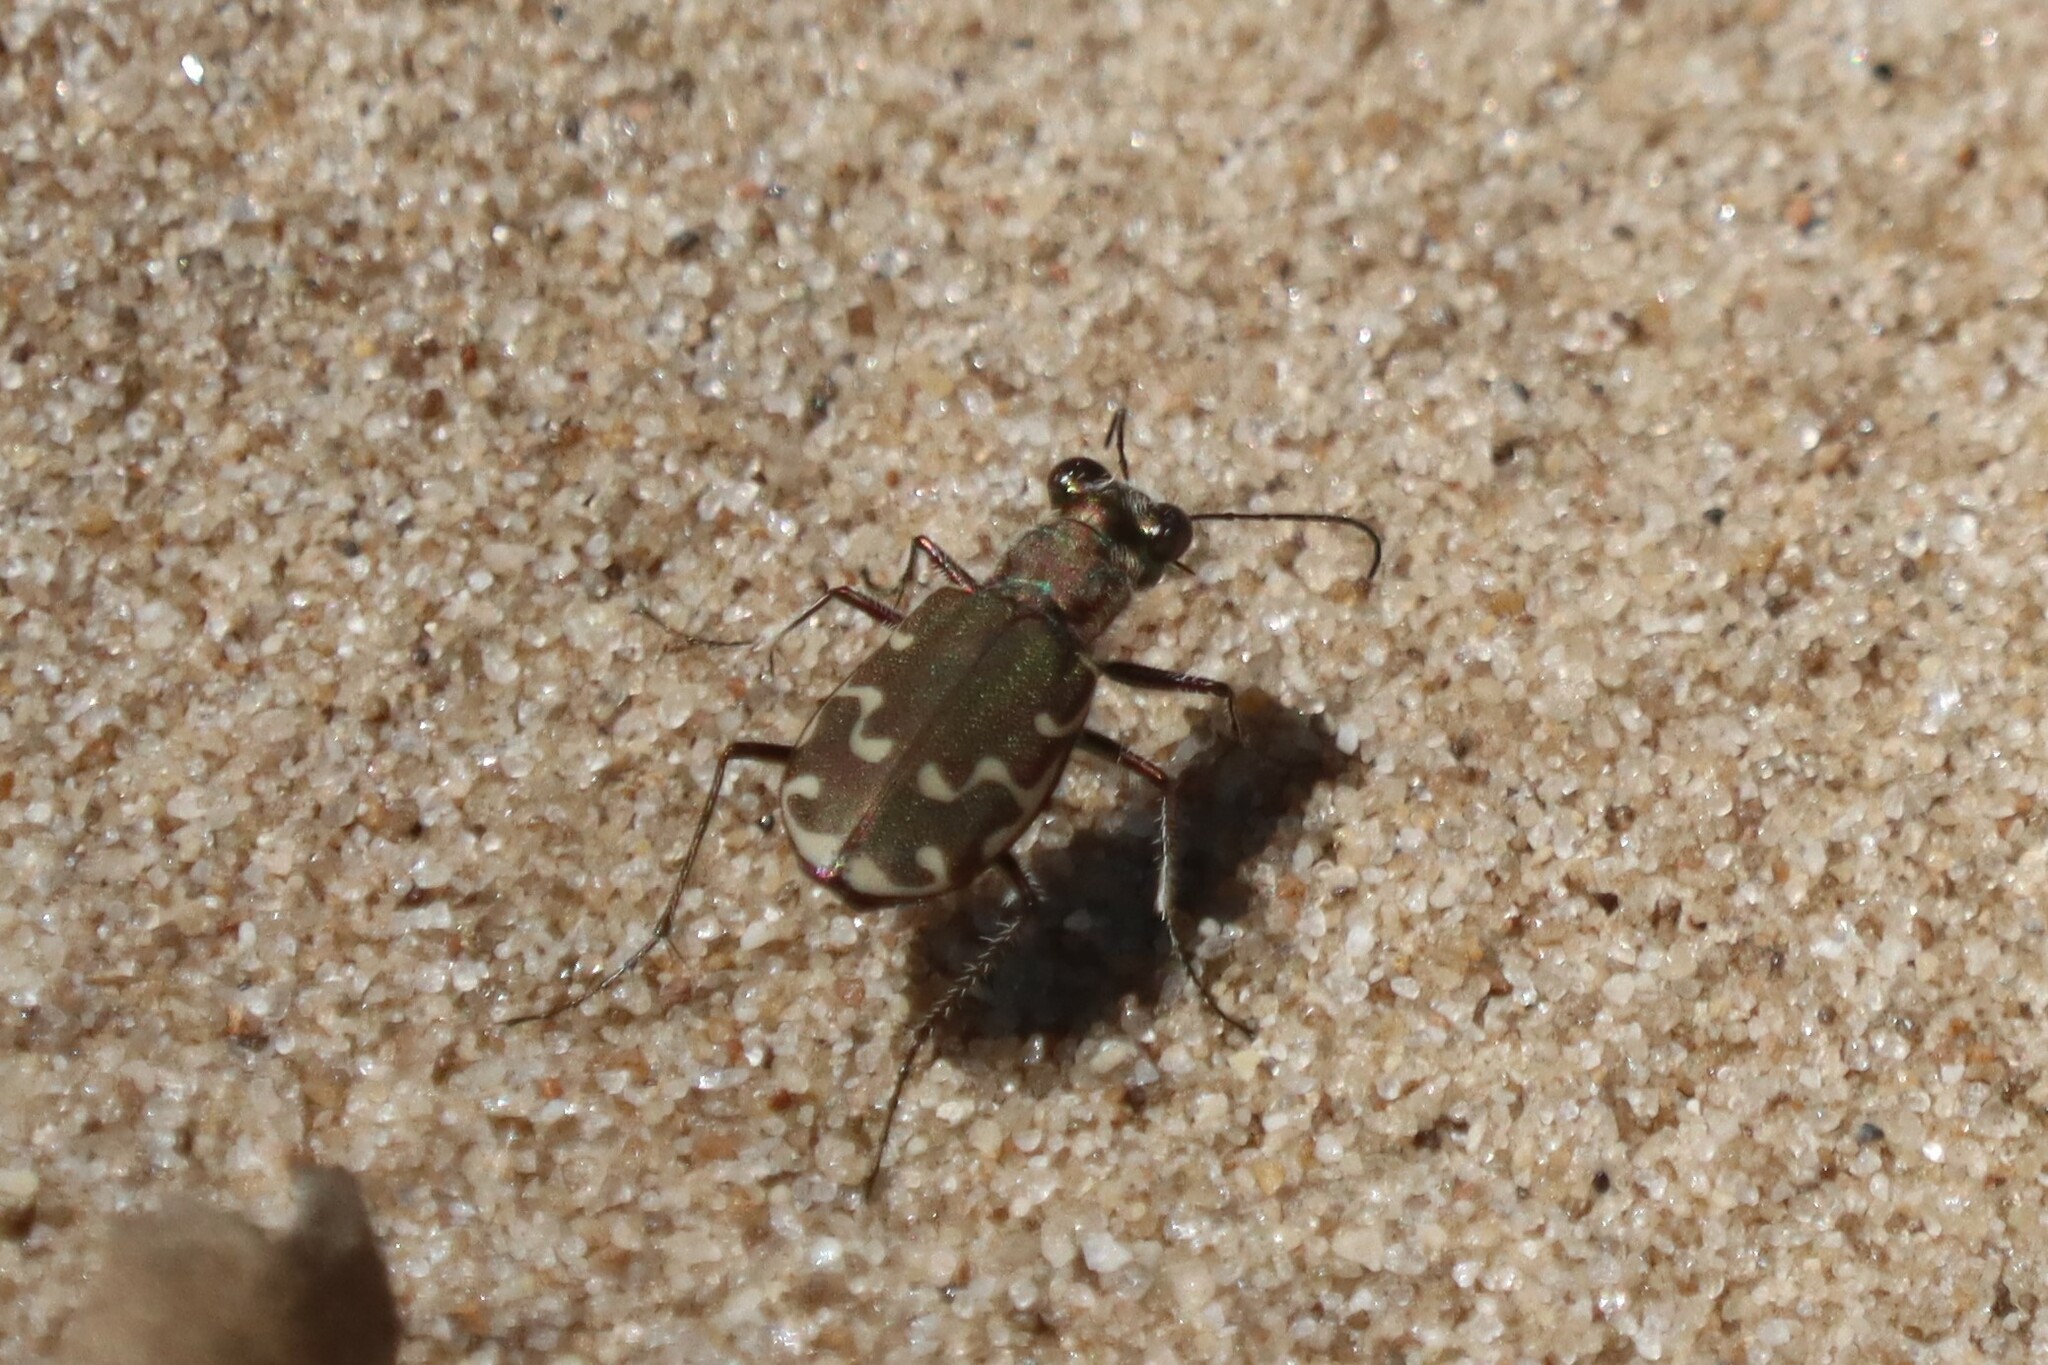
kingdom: Animalia
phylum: Arthropoda
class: Insecta
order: Coleoptera
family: Carabidae
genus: Cicindela
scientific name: Cicindela repanda
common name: Bronzed tiger beetle
